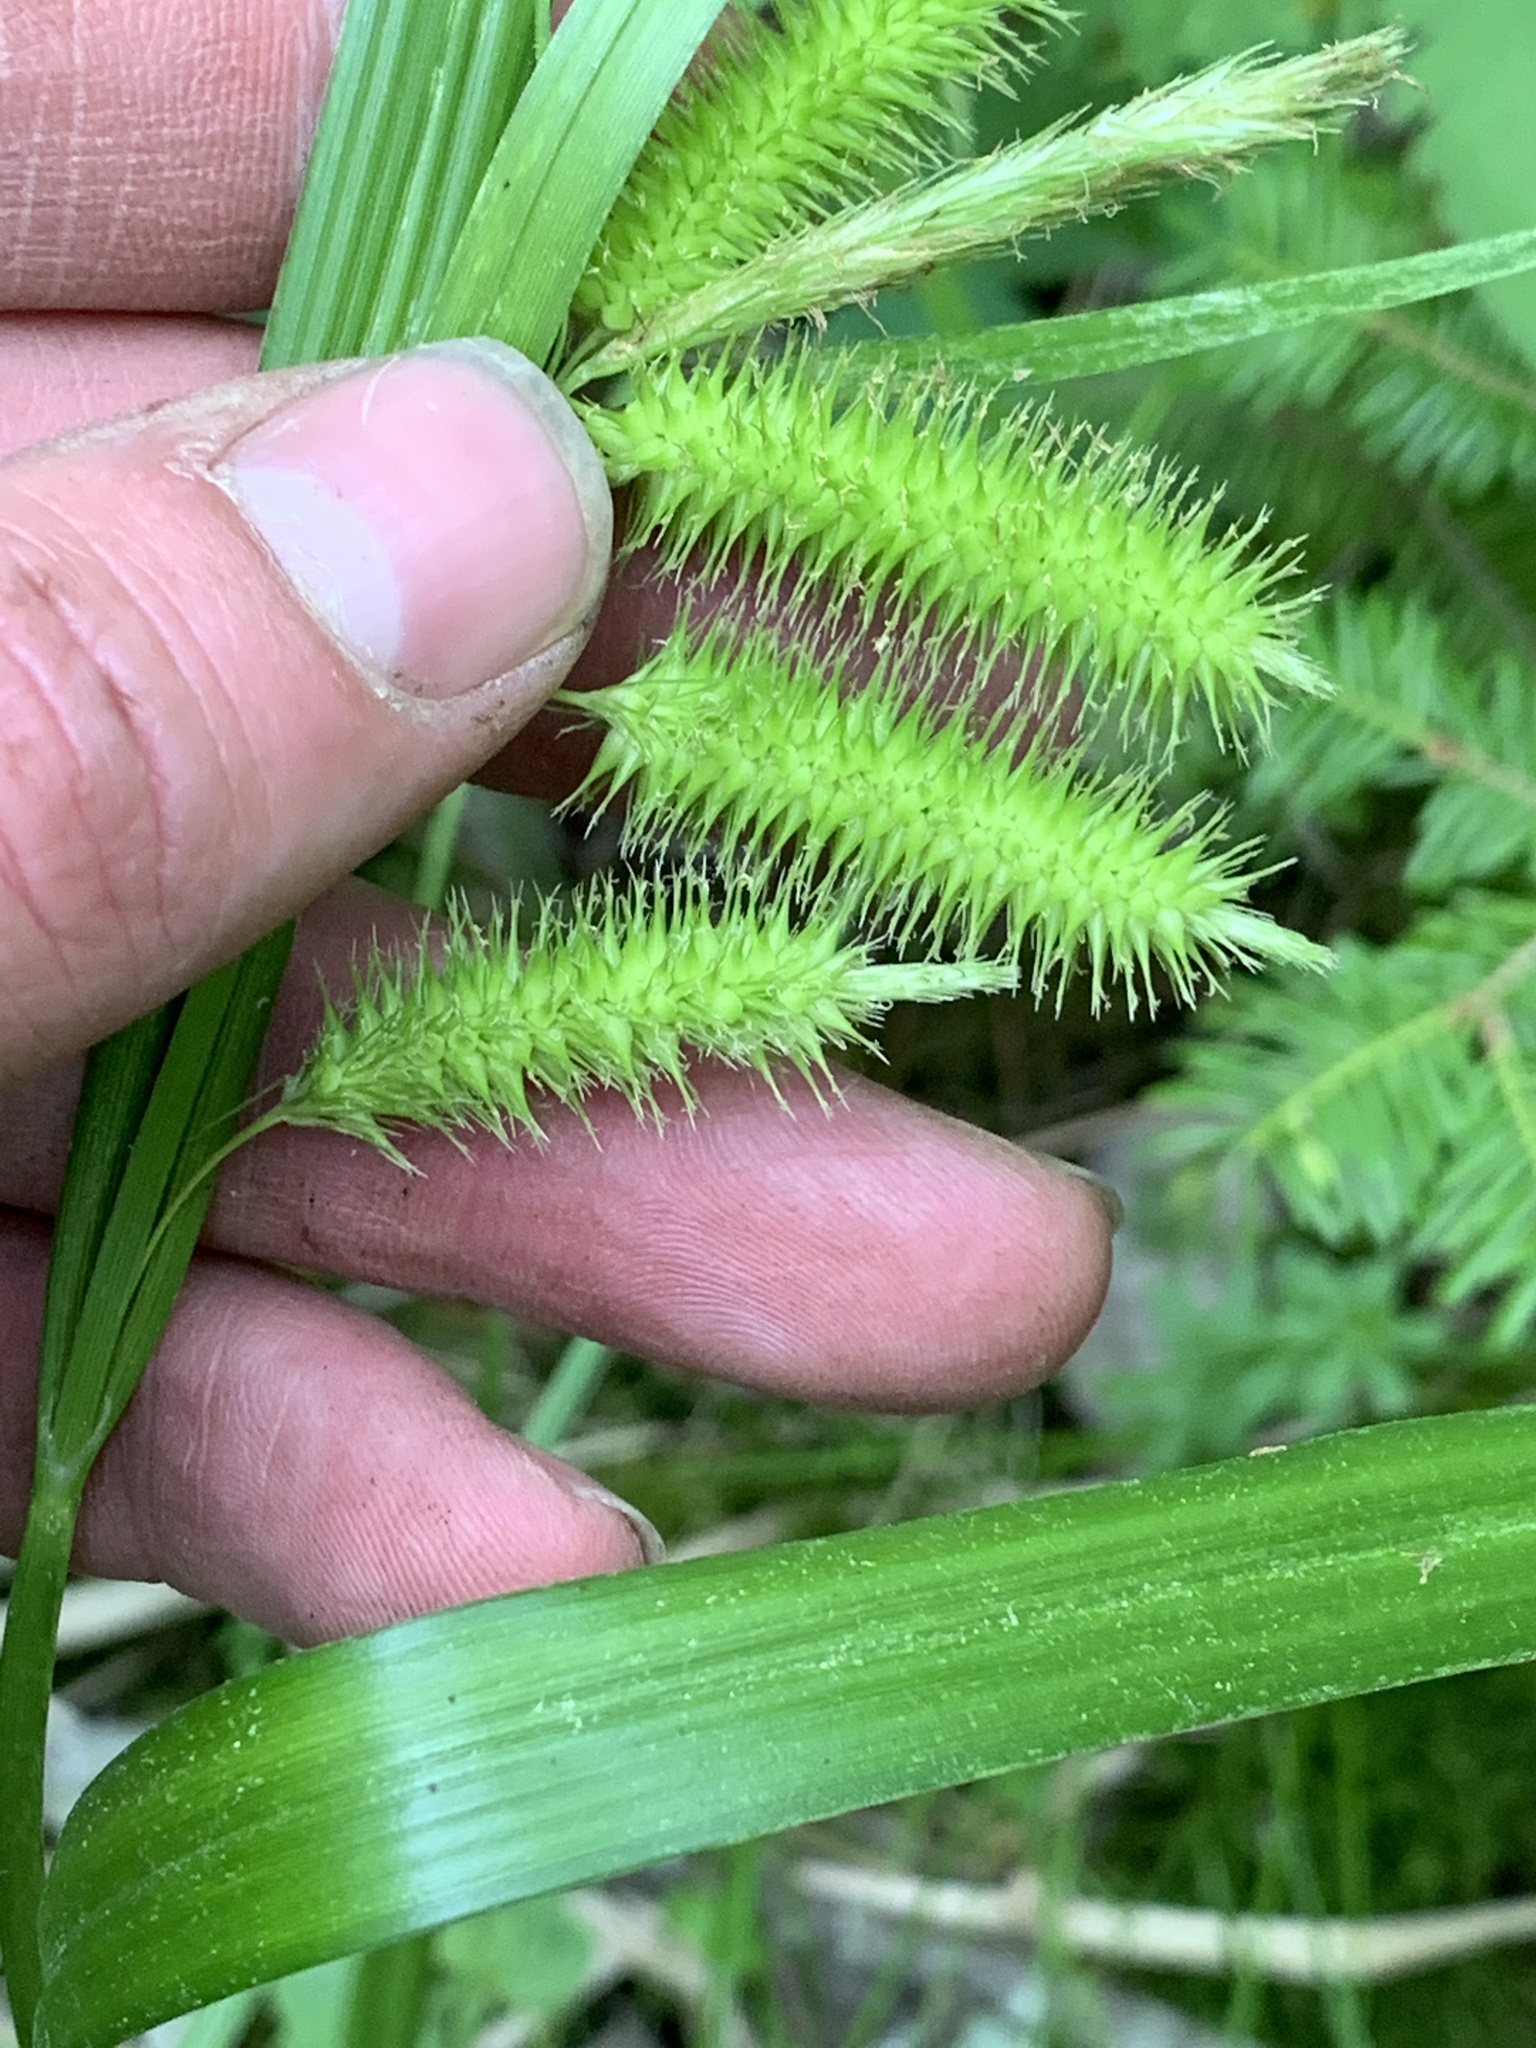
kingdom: Plantae
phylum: Tracheophyta
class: Liliopsida
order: Poales
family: Cyperaceae
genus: Carex
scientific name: Carex comosa
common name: Bristly sedge
